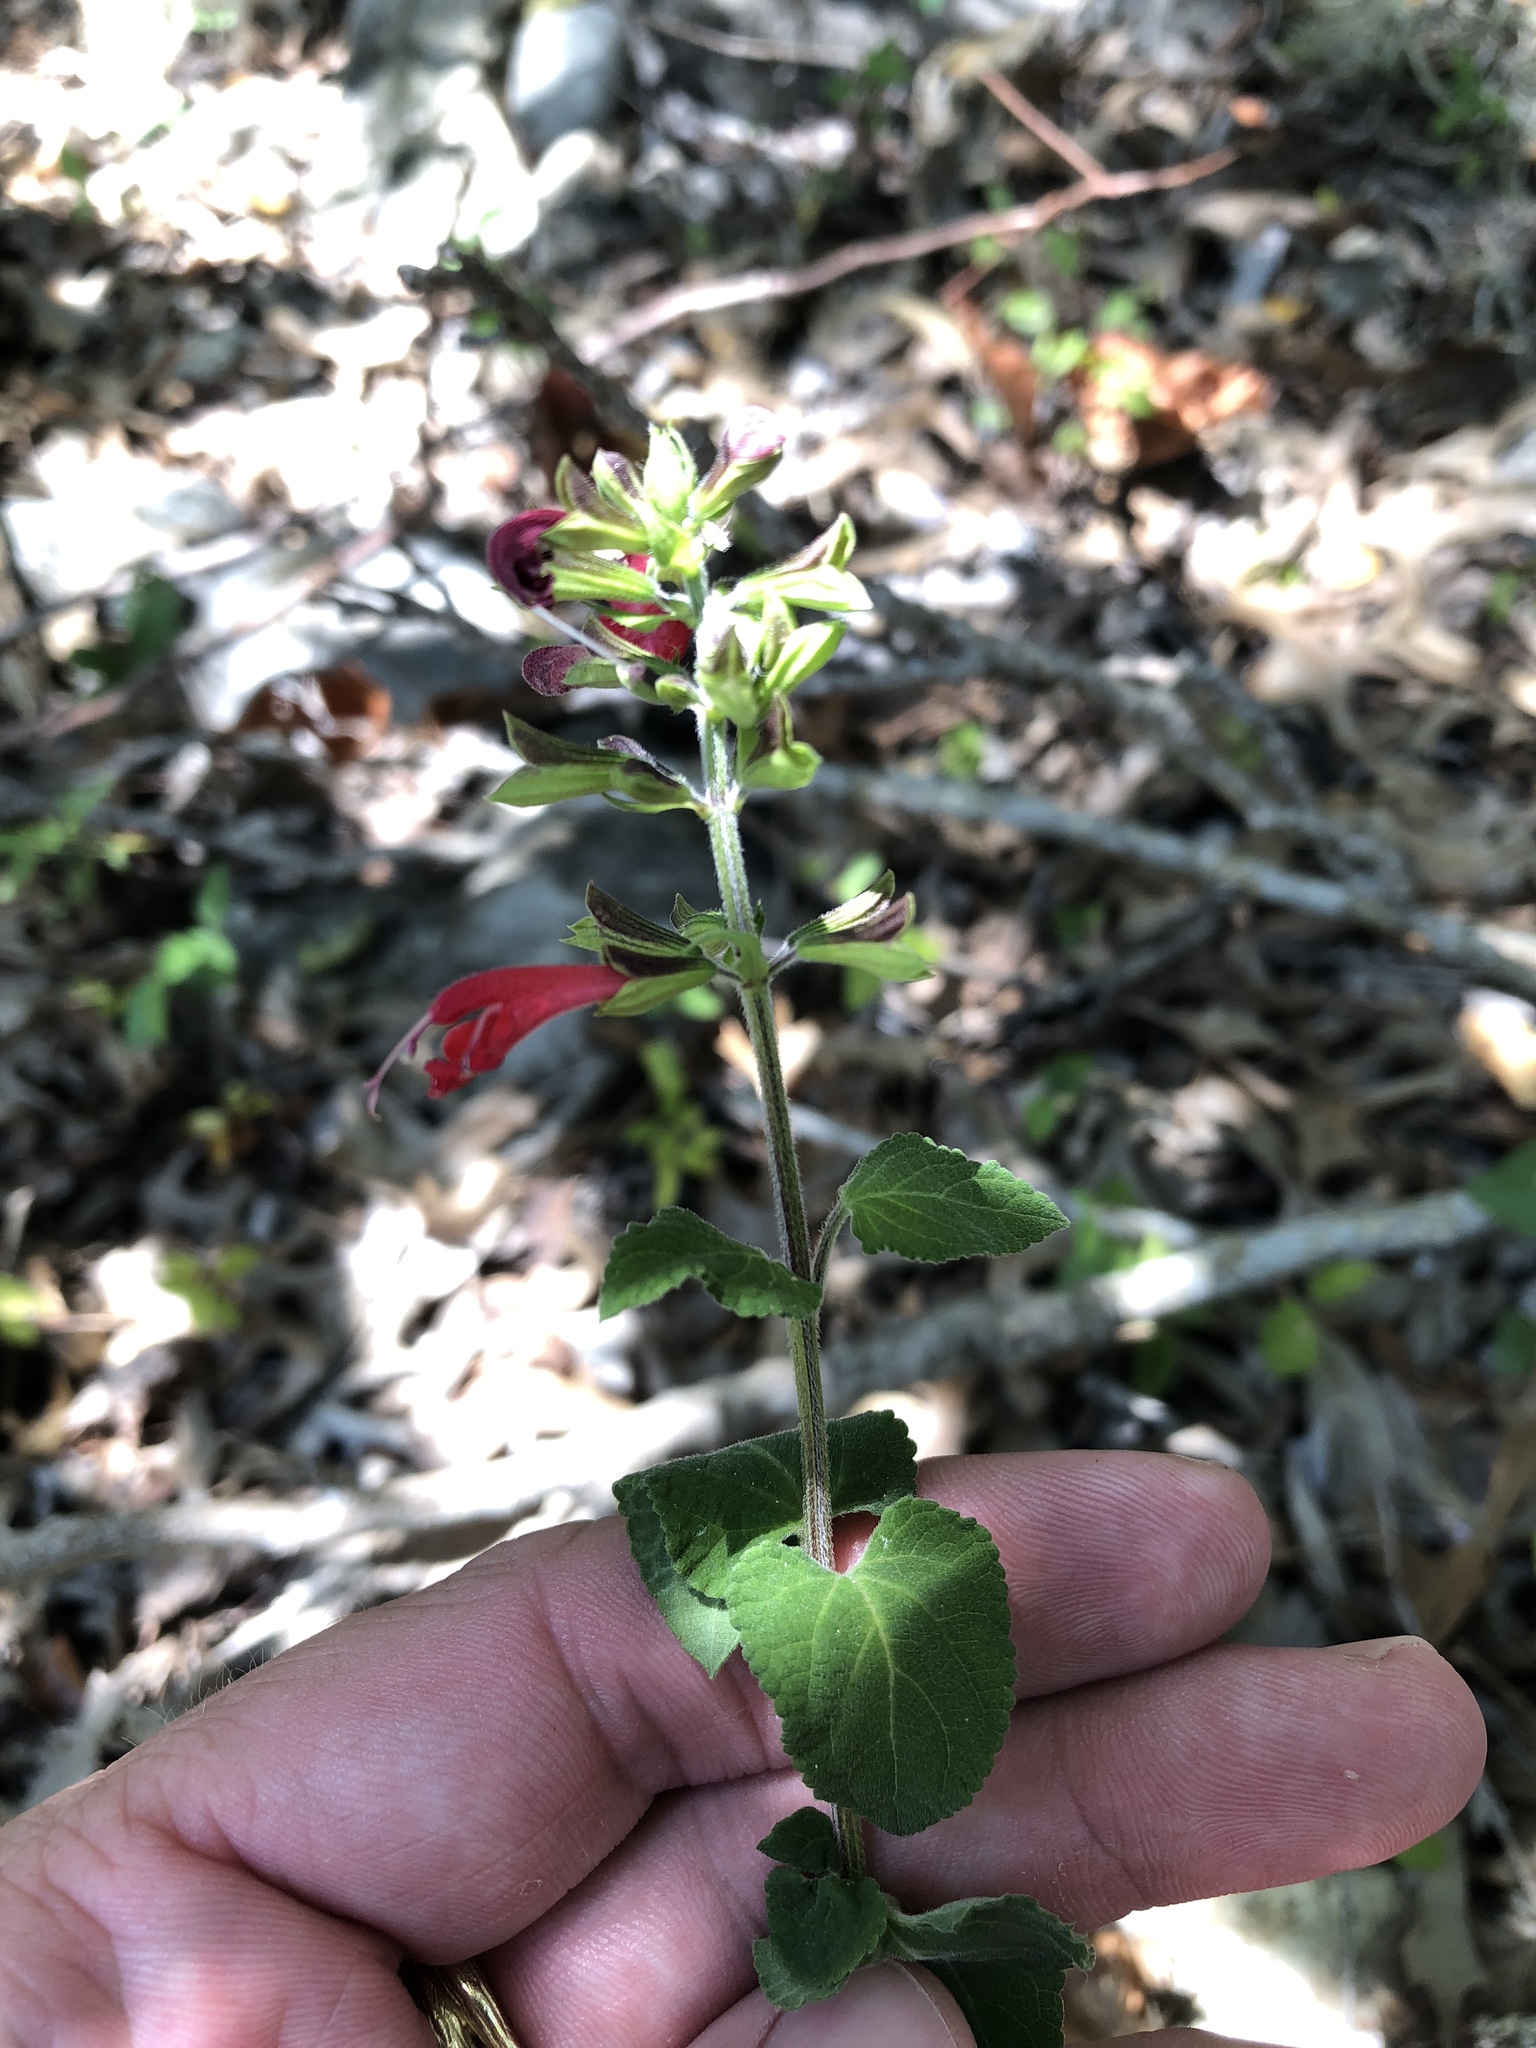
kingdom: Plantae
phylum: Tracheophyta
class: Magnoliopsida
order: Lamiales
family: Lamiaceae
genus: Salvia
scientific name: Salvia coccinea
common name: Blood sage
